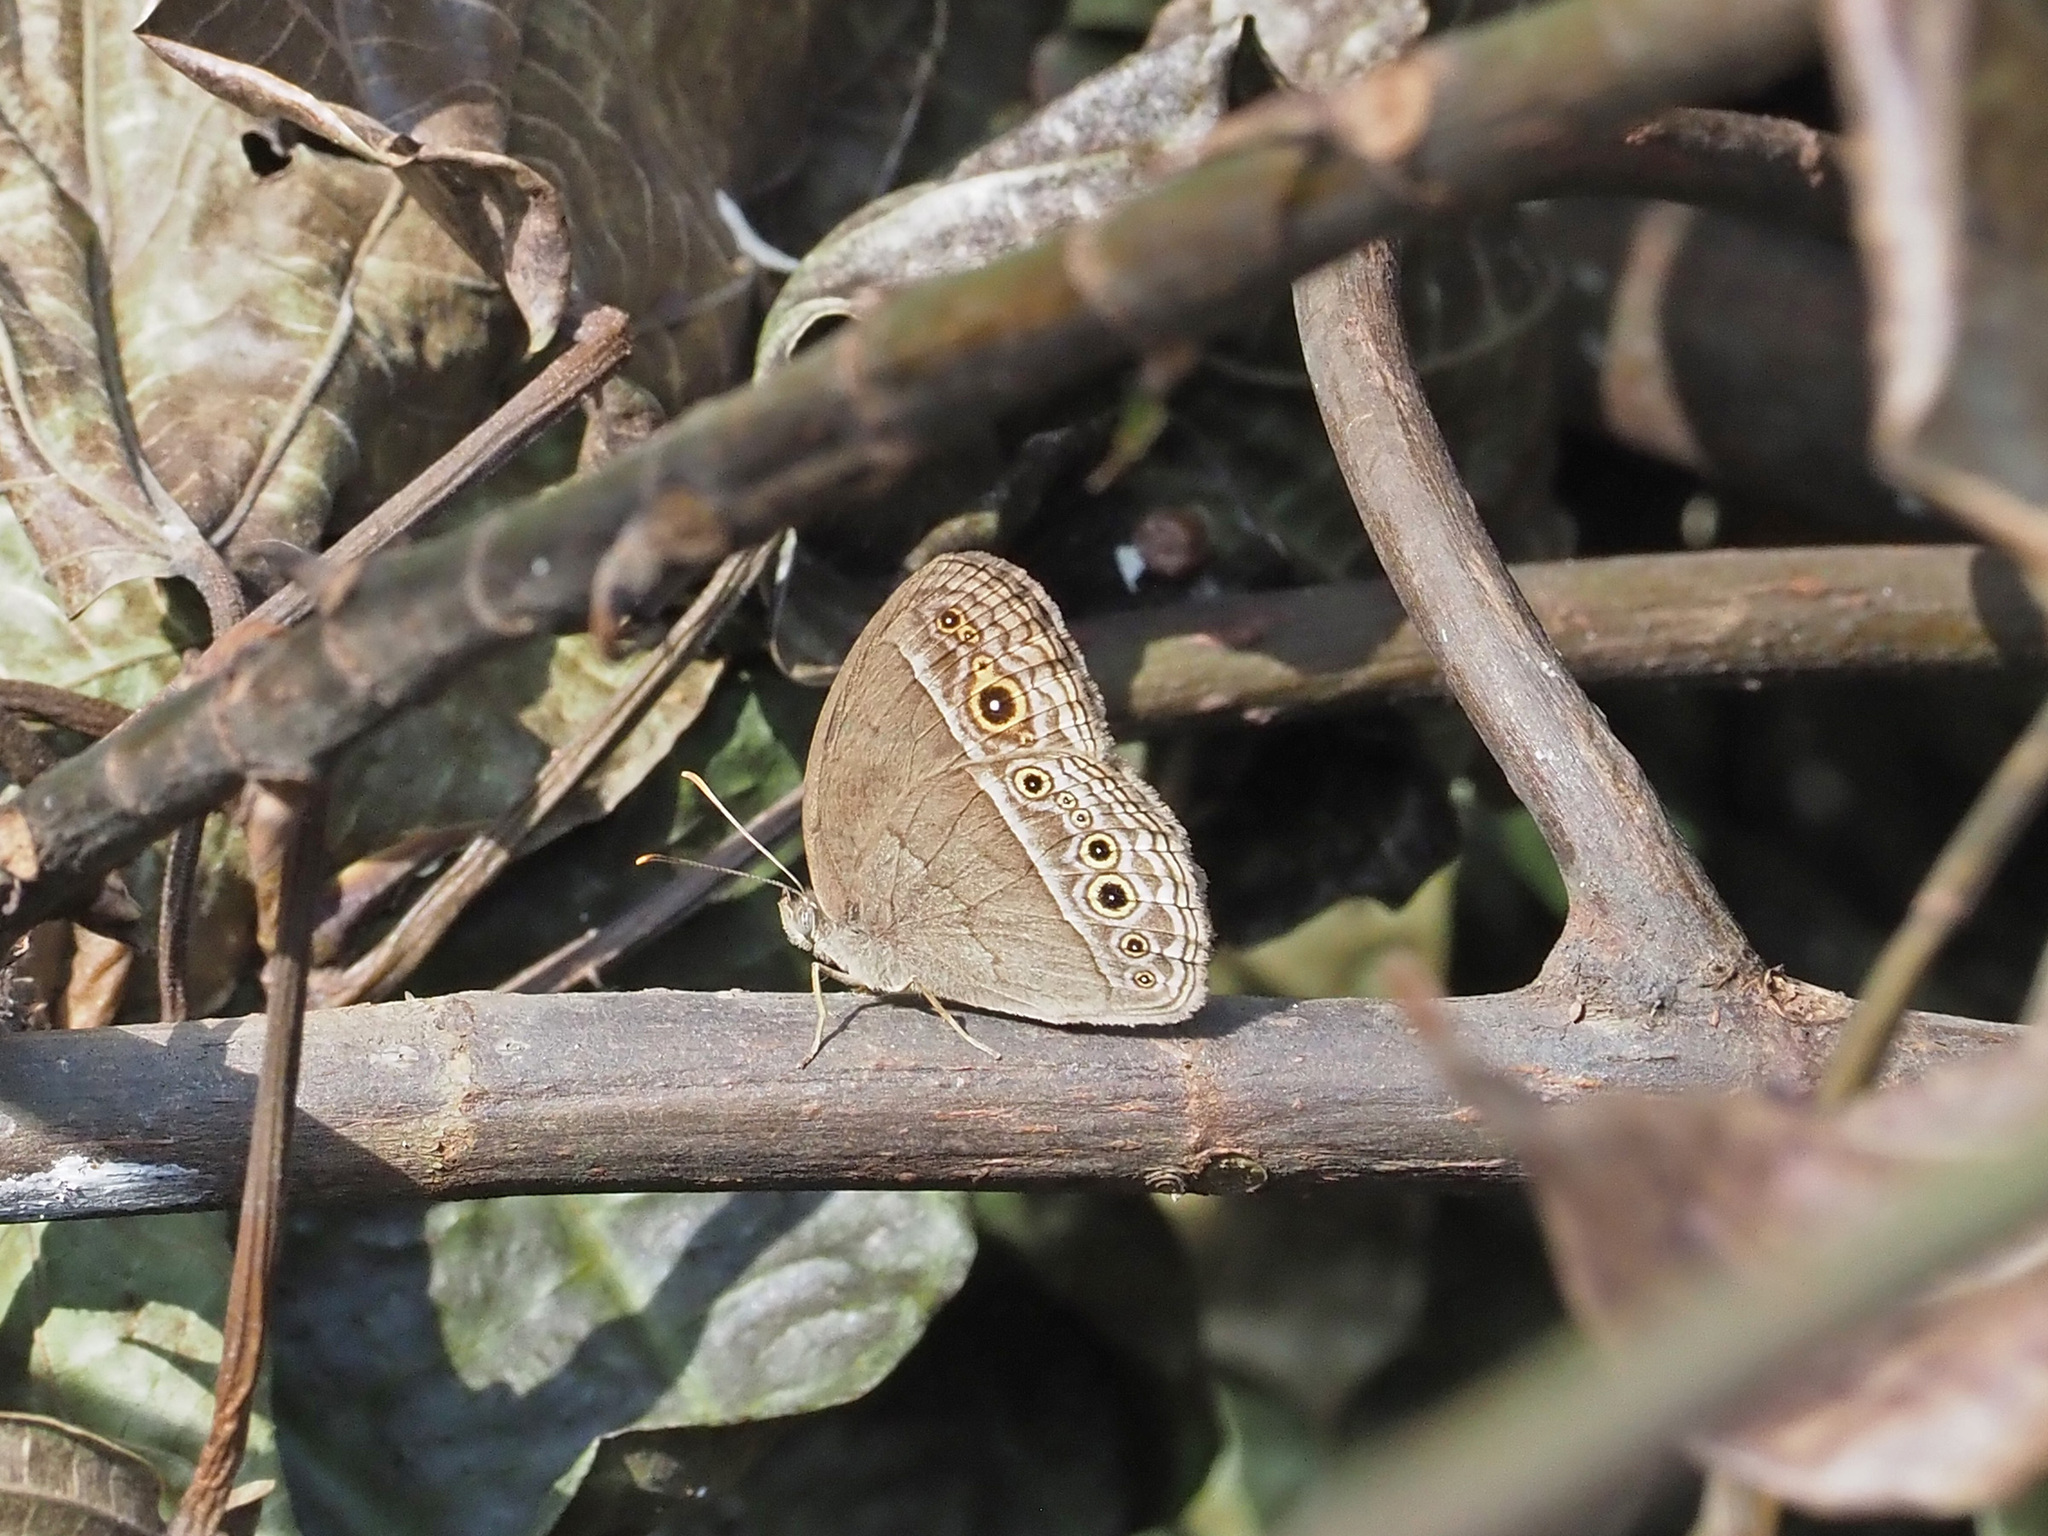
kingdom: Animalia
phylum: Arthropoda
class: Insecta
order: Lepidoptera
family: Nymphalidae
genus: Mycalesis
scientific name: Mycalesis perseoides
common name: Burmese bushbrown
